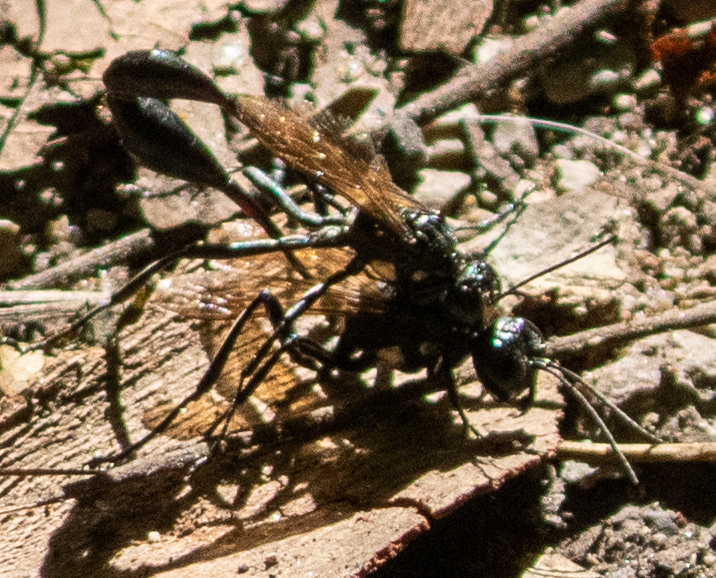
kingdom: Animalia
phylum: Arthropoda
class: Insecta
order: Hymenoptera
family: Sphecidae
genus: Eremnophila
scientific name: Eremnophila aureonotata
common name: Gold-marked thread-waisted wasp
